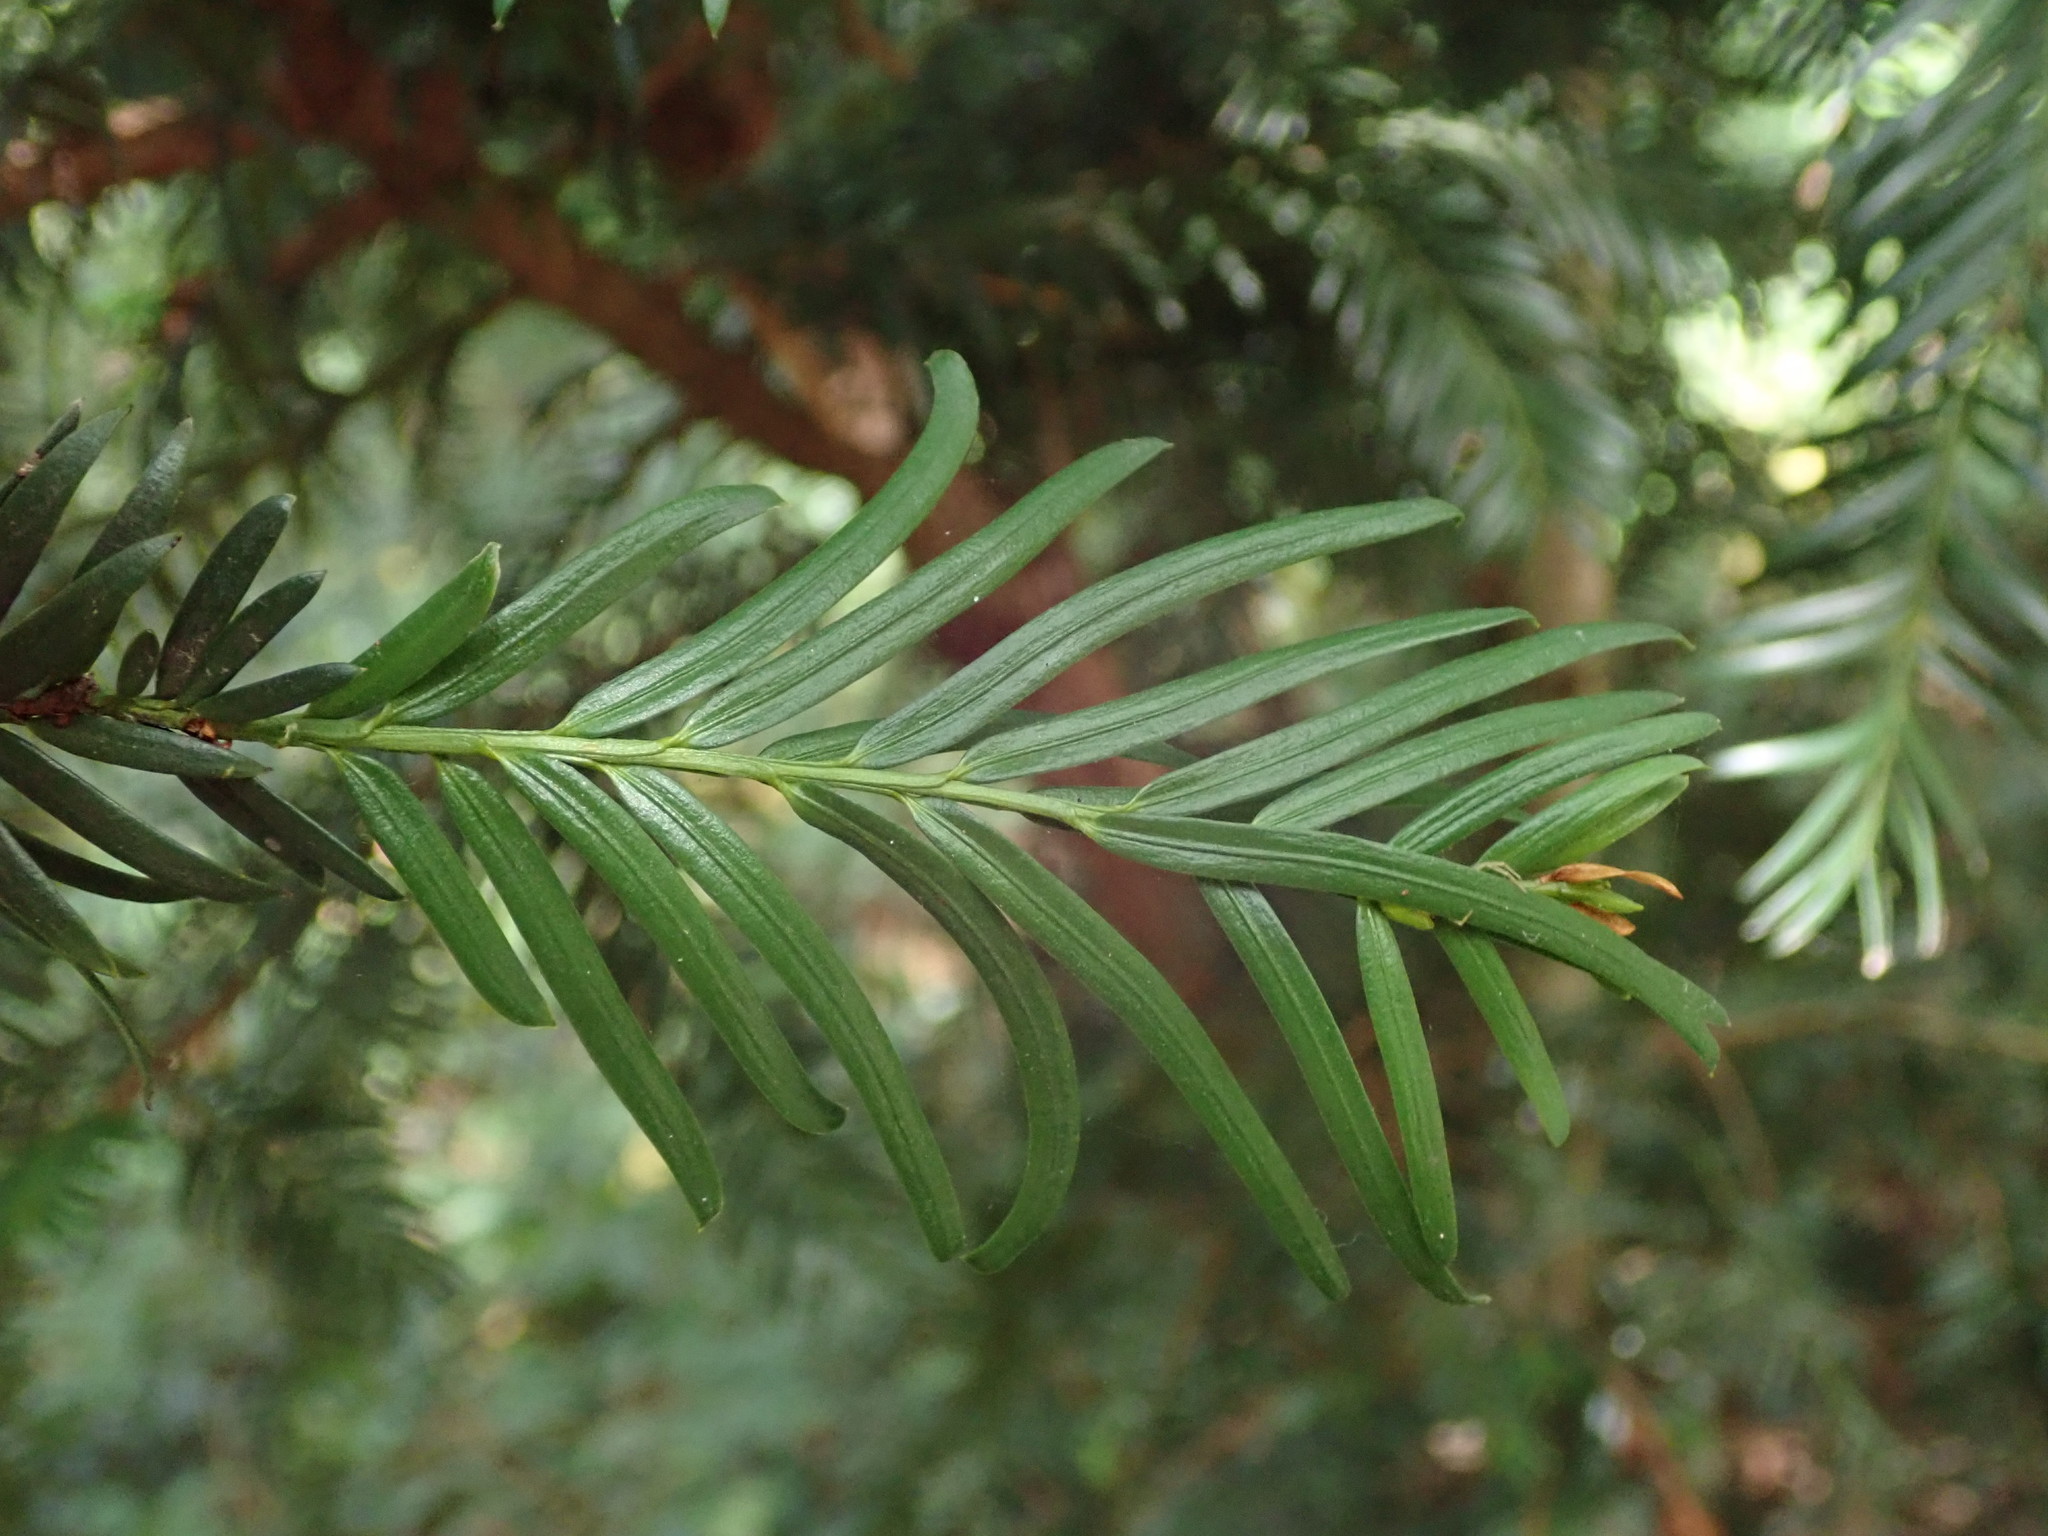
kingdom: Plantae
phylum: Tracheophyta
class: Pinopsida
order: Pinales
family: Taxaceae
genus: Taxus
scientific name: Taxus baccata
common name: Yew
